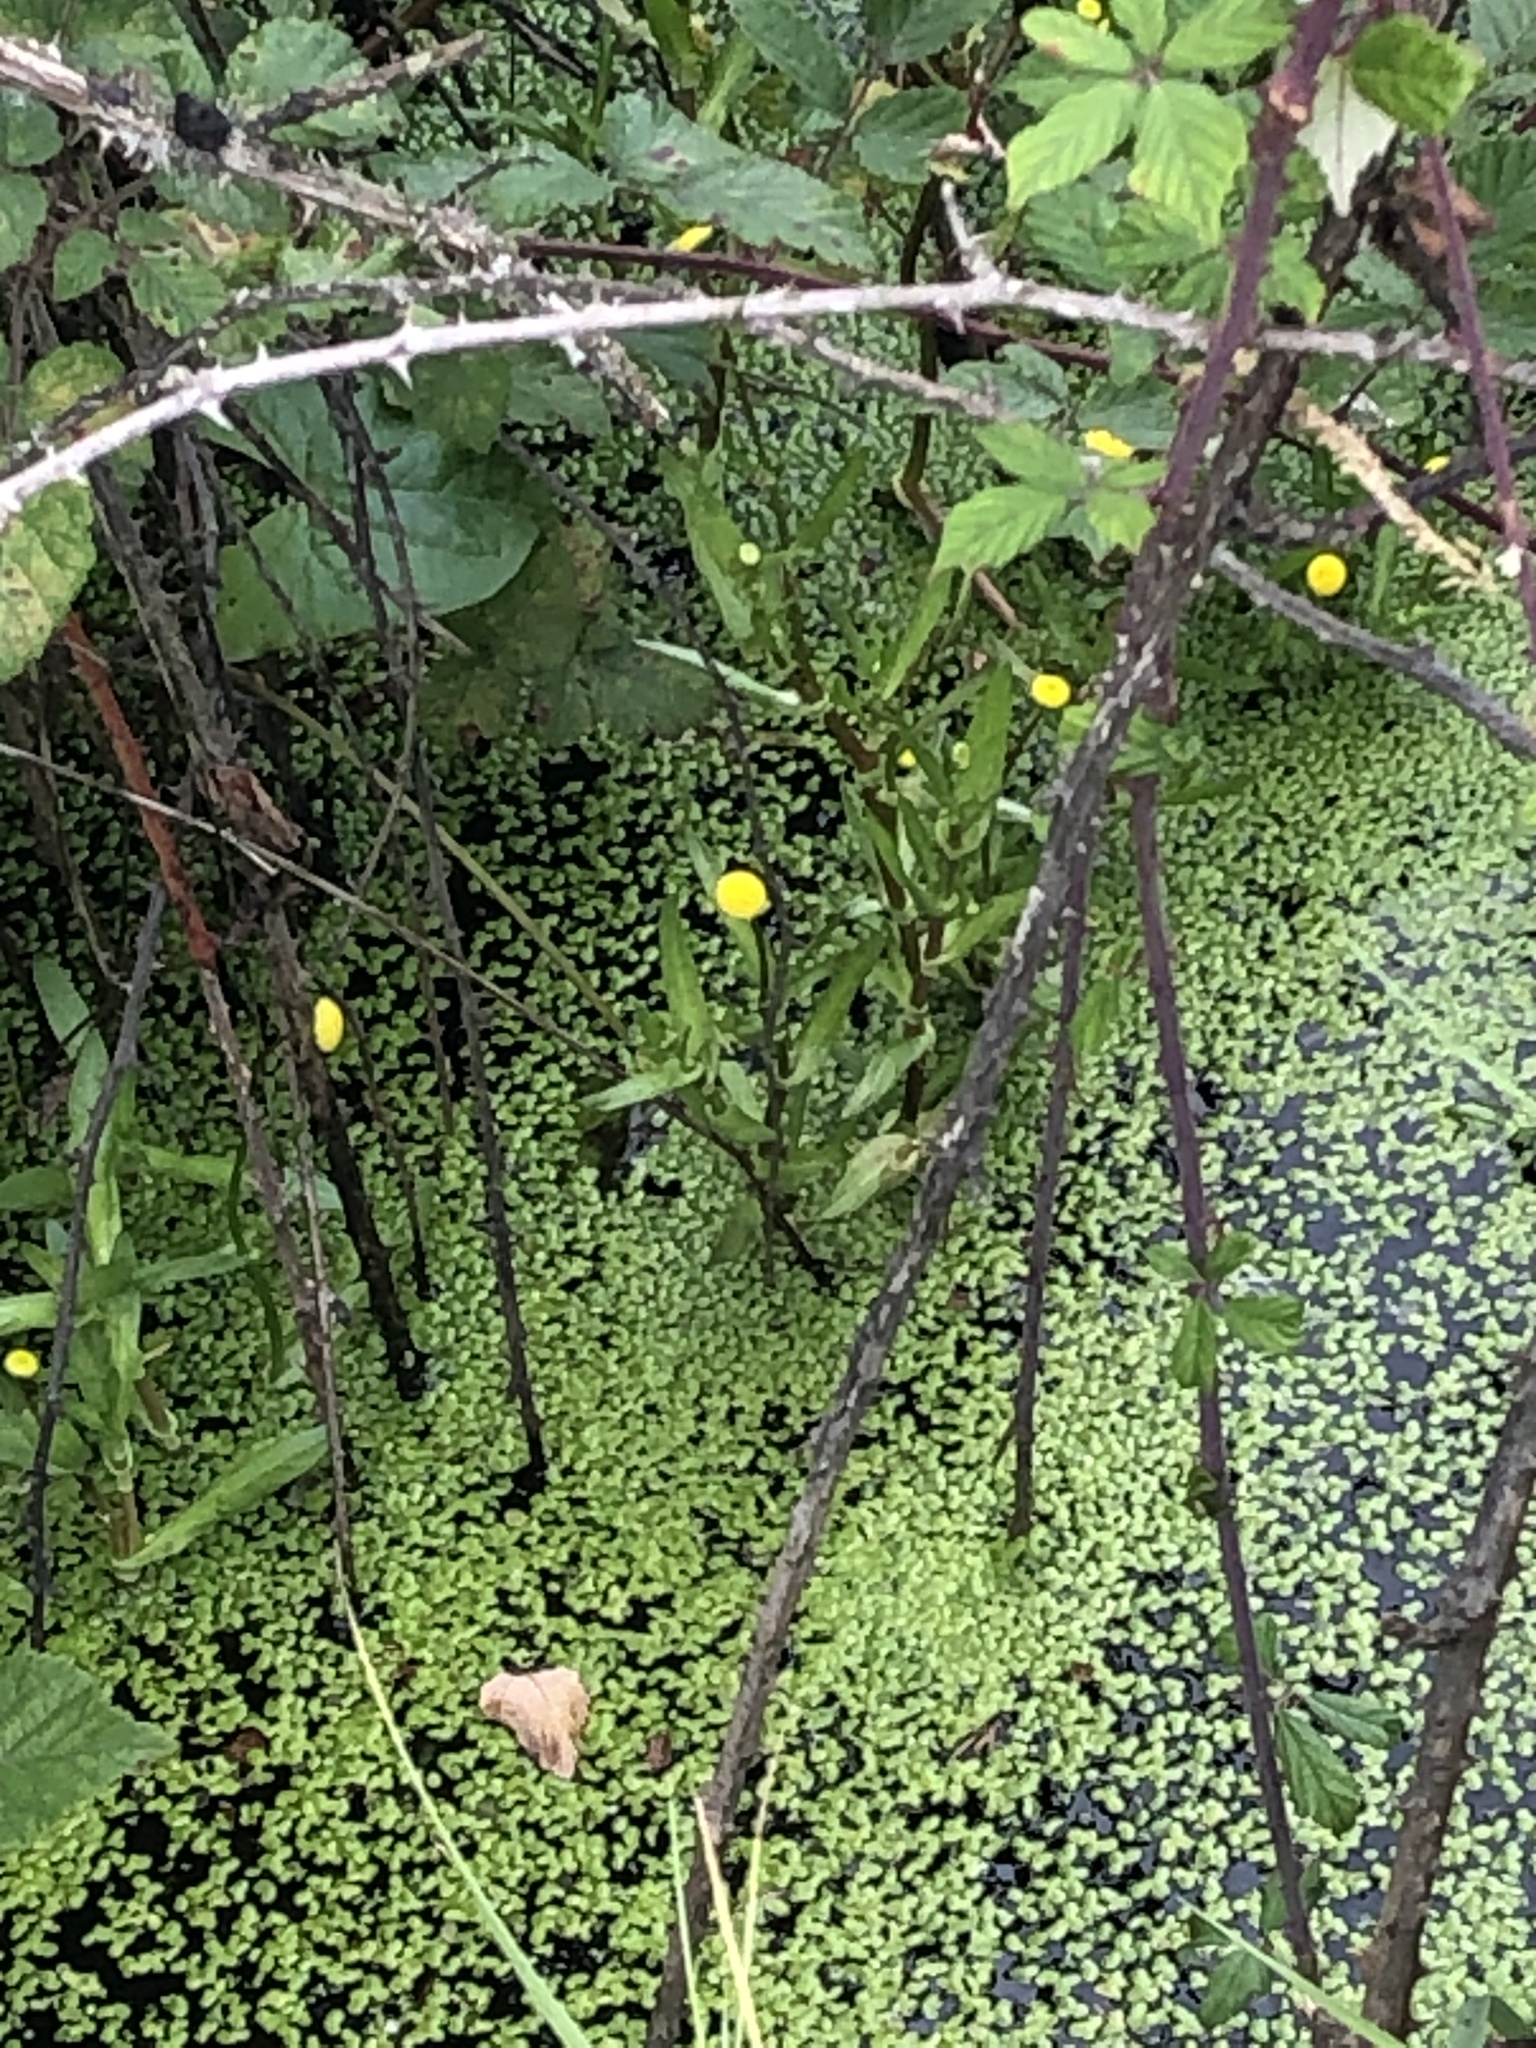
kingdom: Plantae
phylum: Tracheophyta
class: Magnoliopsida
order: Asterales
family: Asteraceae
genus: Cotula
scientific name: Cotula coronopifolia
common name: Buttonweed
